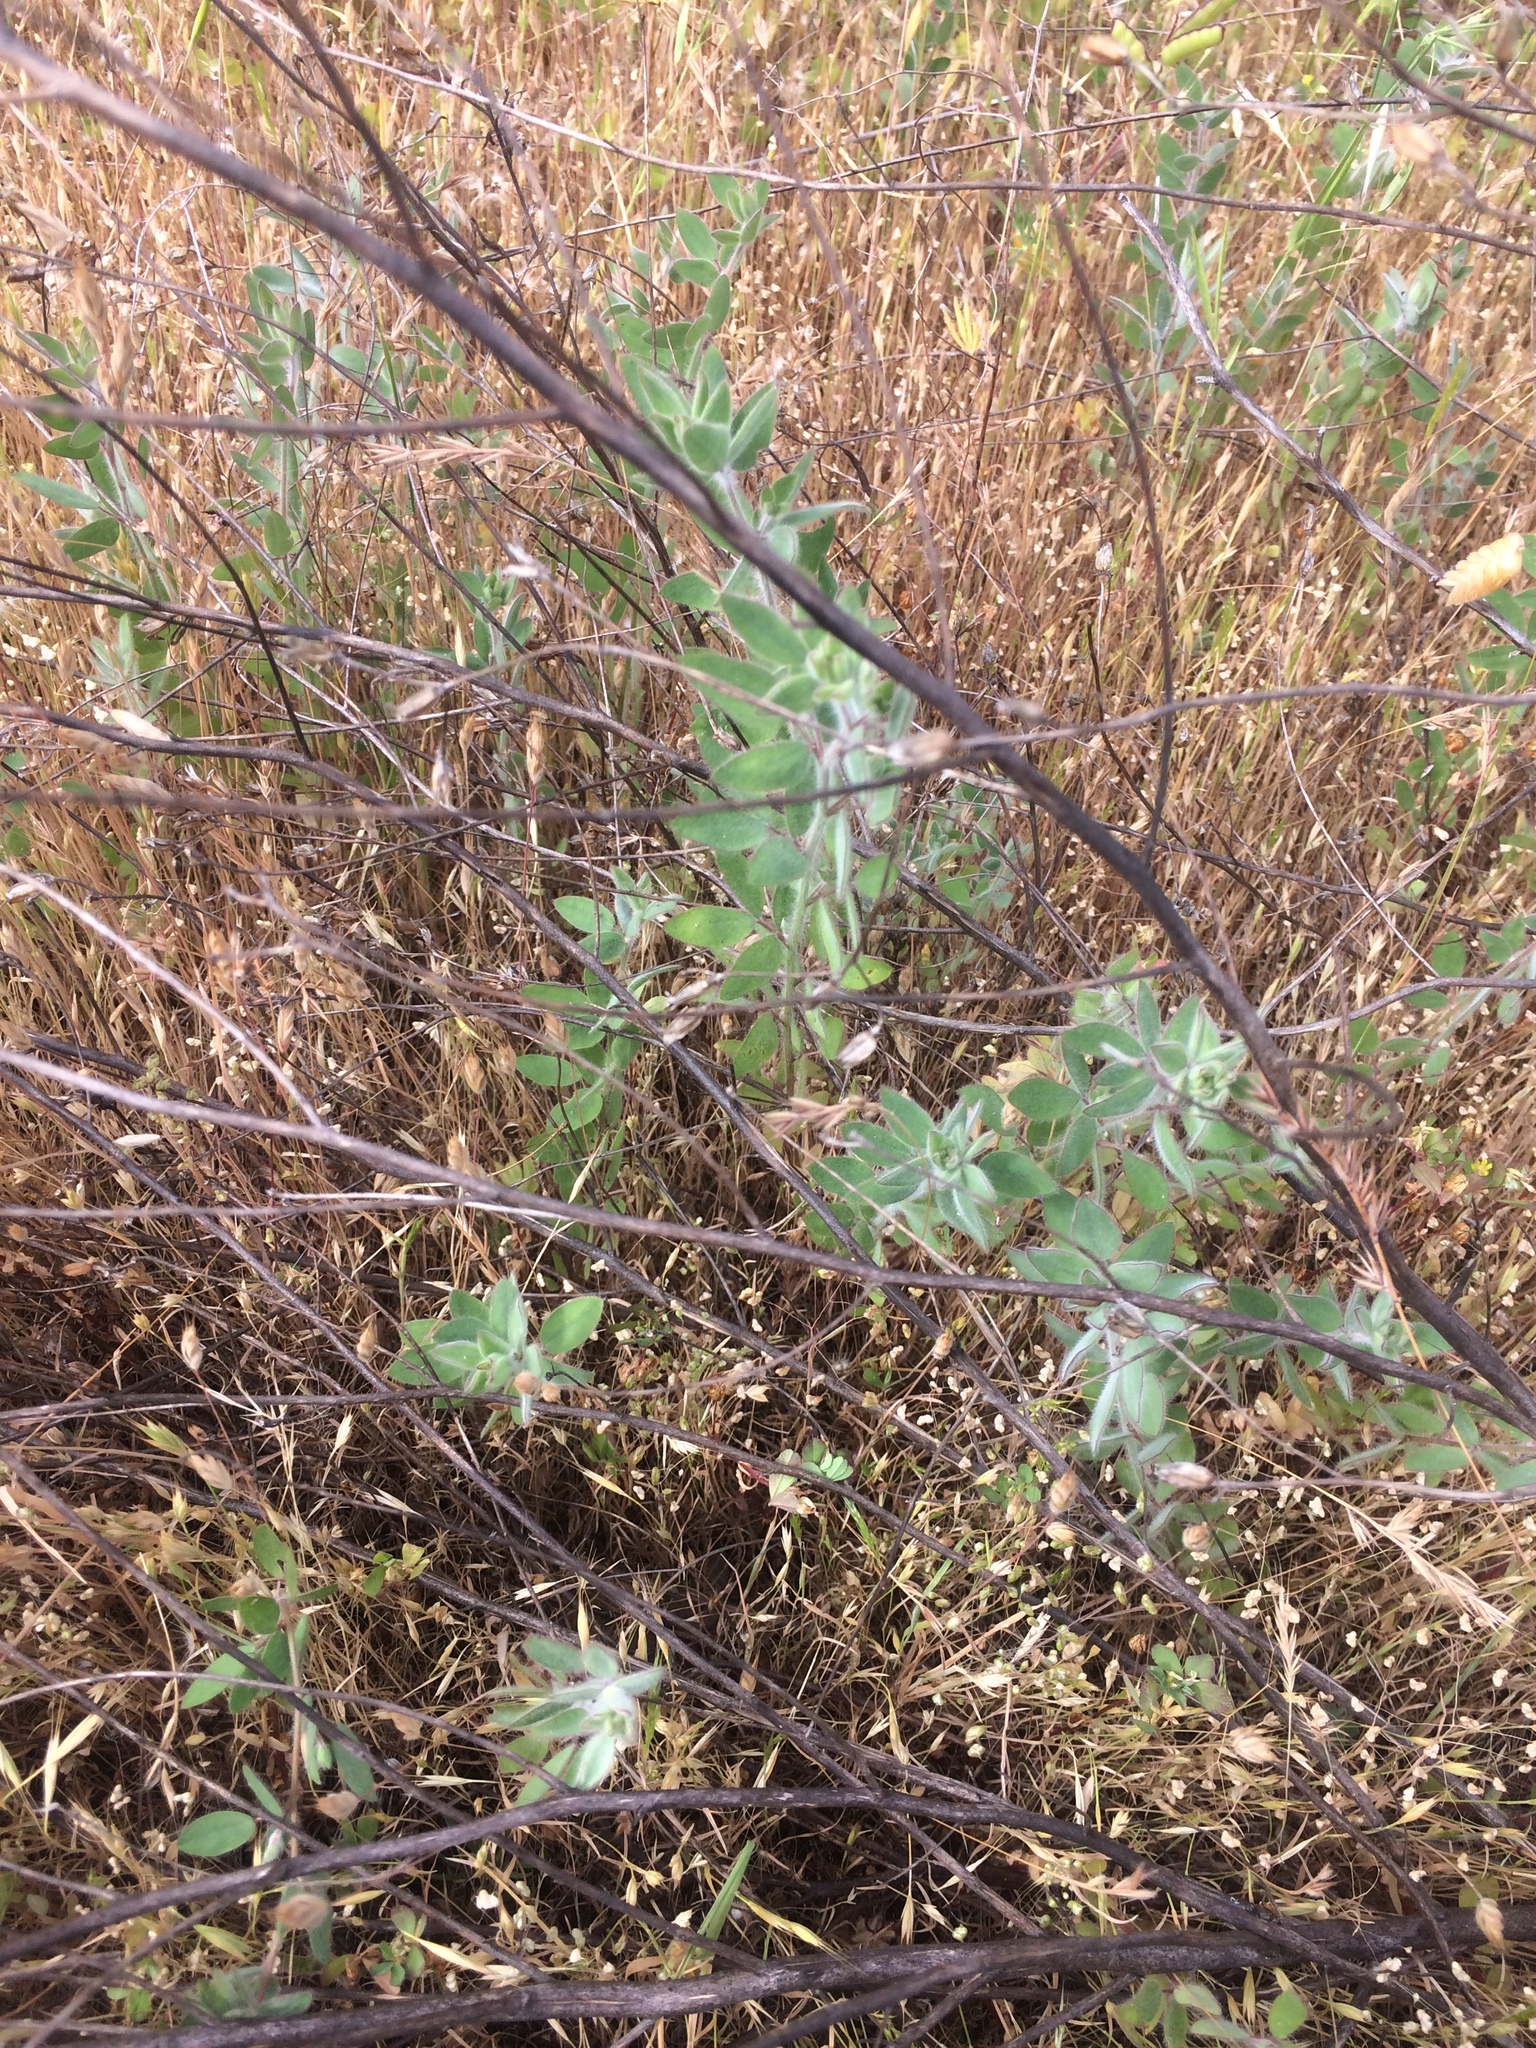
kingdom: Plantae
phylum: Tracheophyta
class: Magnoliopsida
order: Fabales
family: Fabaceae
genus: Acmispon
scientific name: Acmispon americanus
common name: American bird's-foot trefoil
